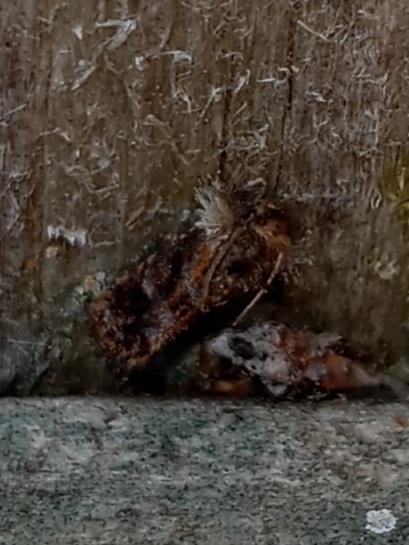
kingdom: Animalia
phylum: Arthropoda
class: Insecta
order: Lepidoptera
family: Tineidae
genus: Acrolophus
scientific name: Acrolophus panamae
